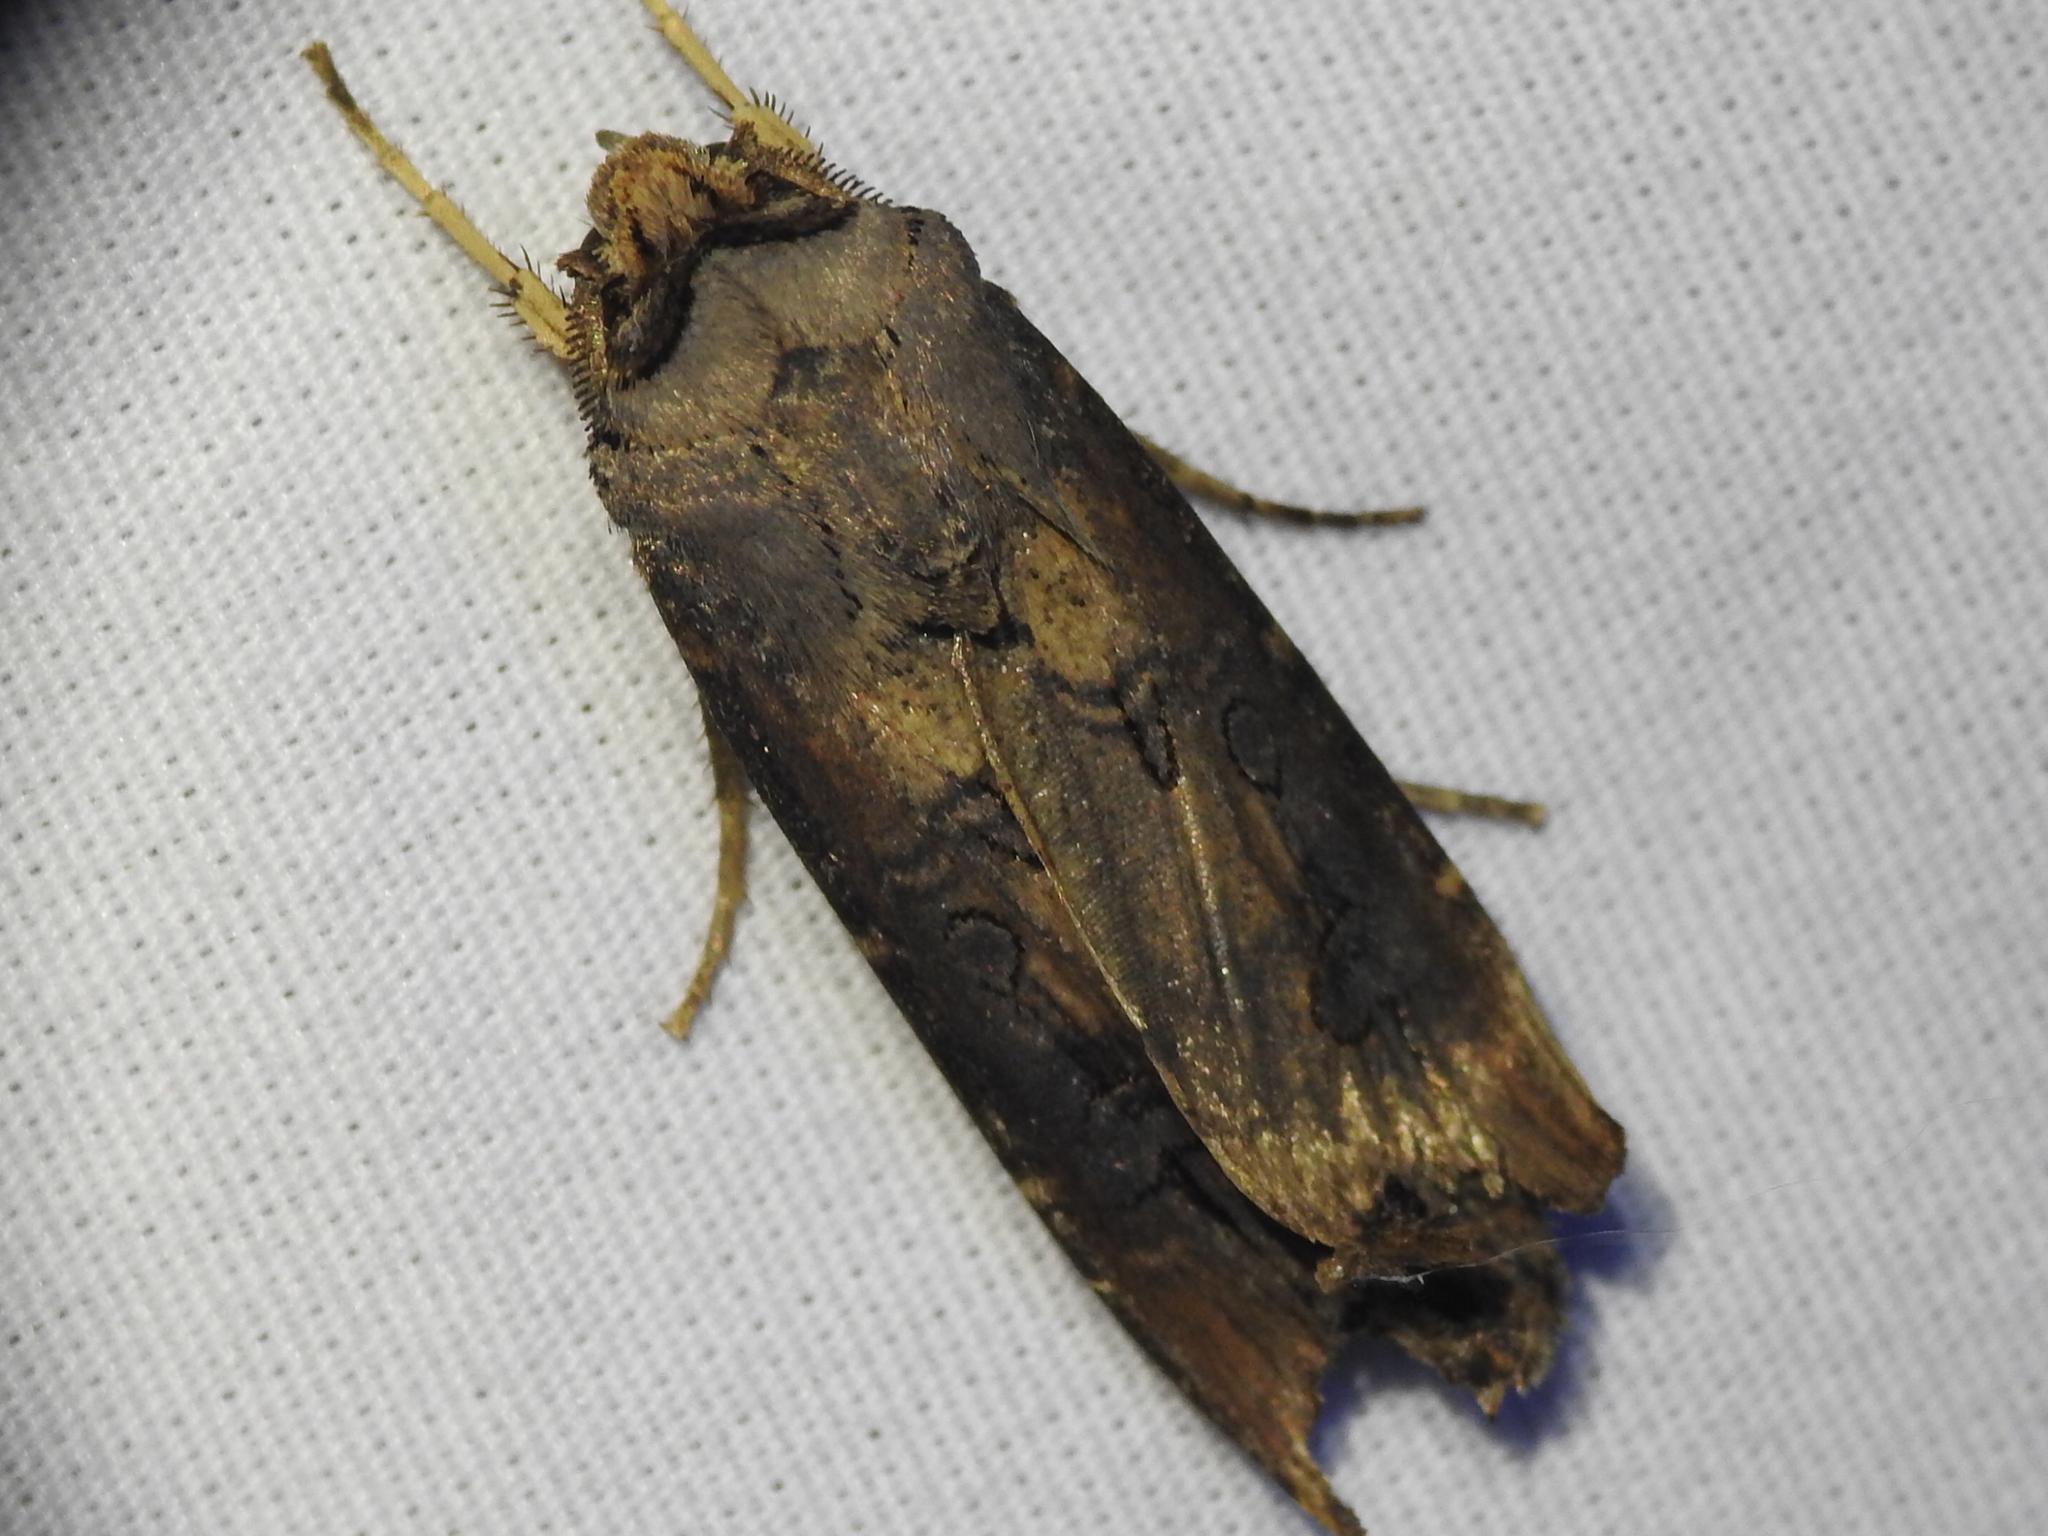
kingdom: Animalia
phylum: Arthropoda
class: Insecta
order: Lepidoptera
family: Noctuidae
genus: Agrotis
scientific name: Agrotis ipsilon
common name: Dark sword-grass
